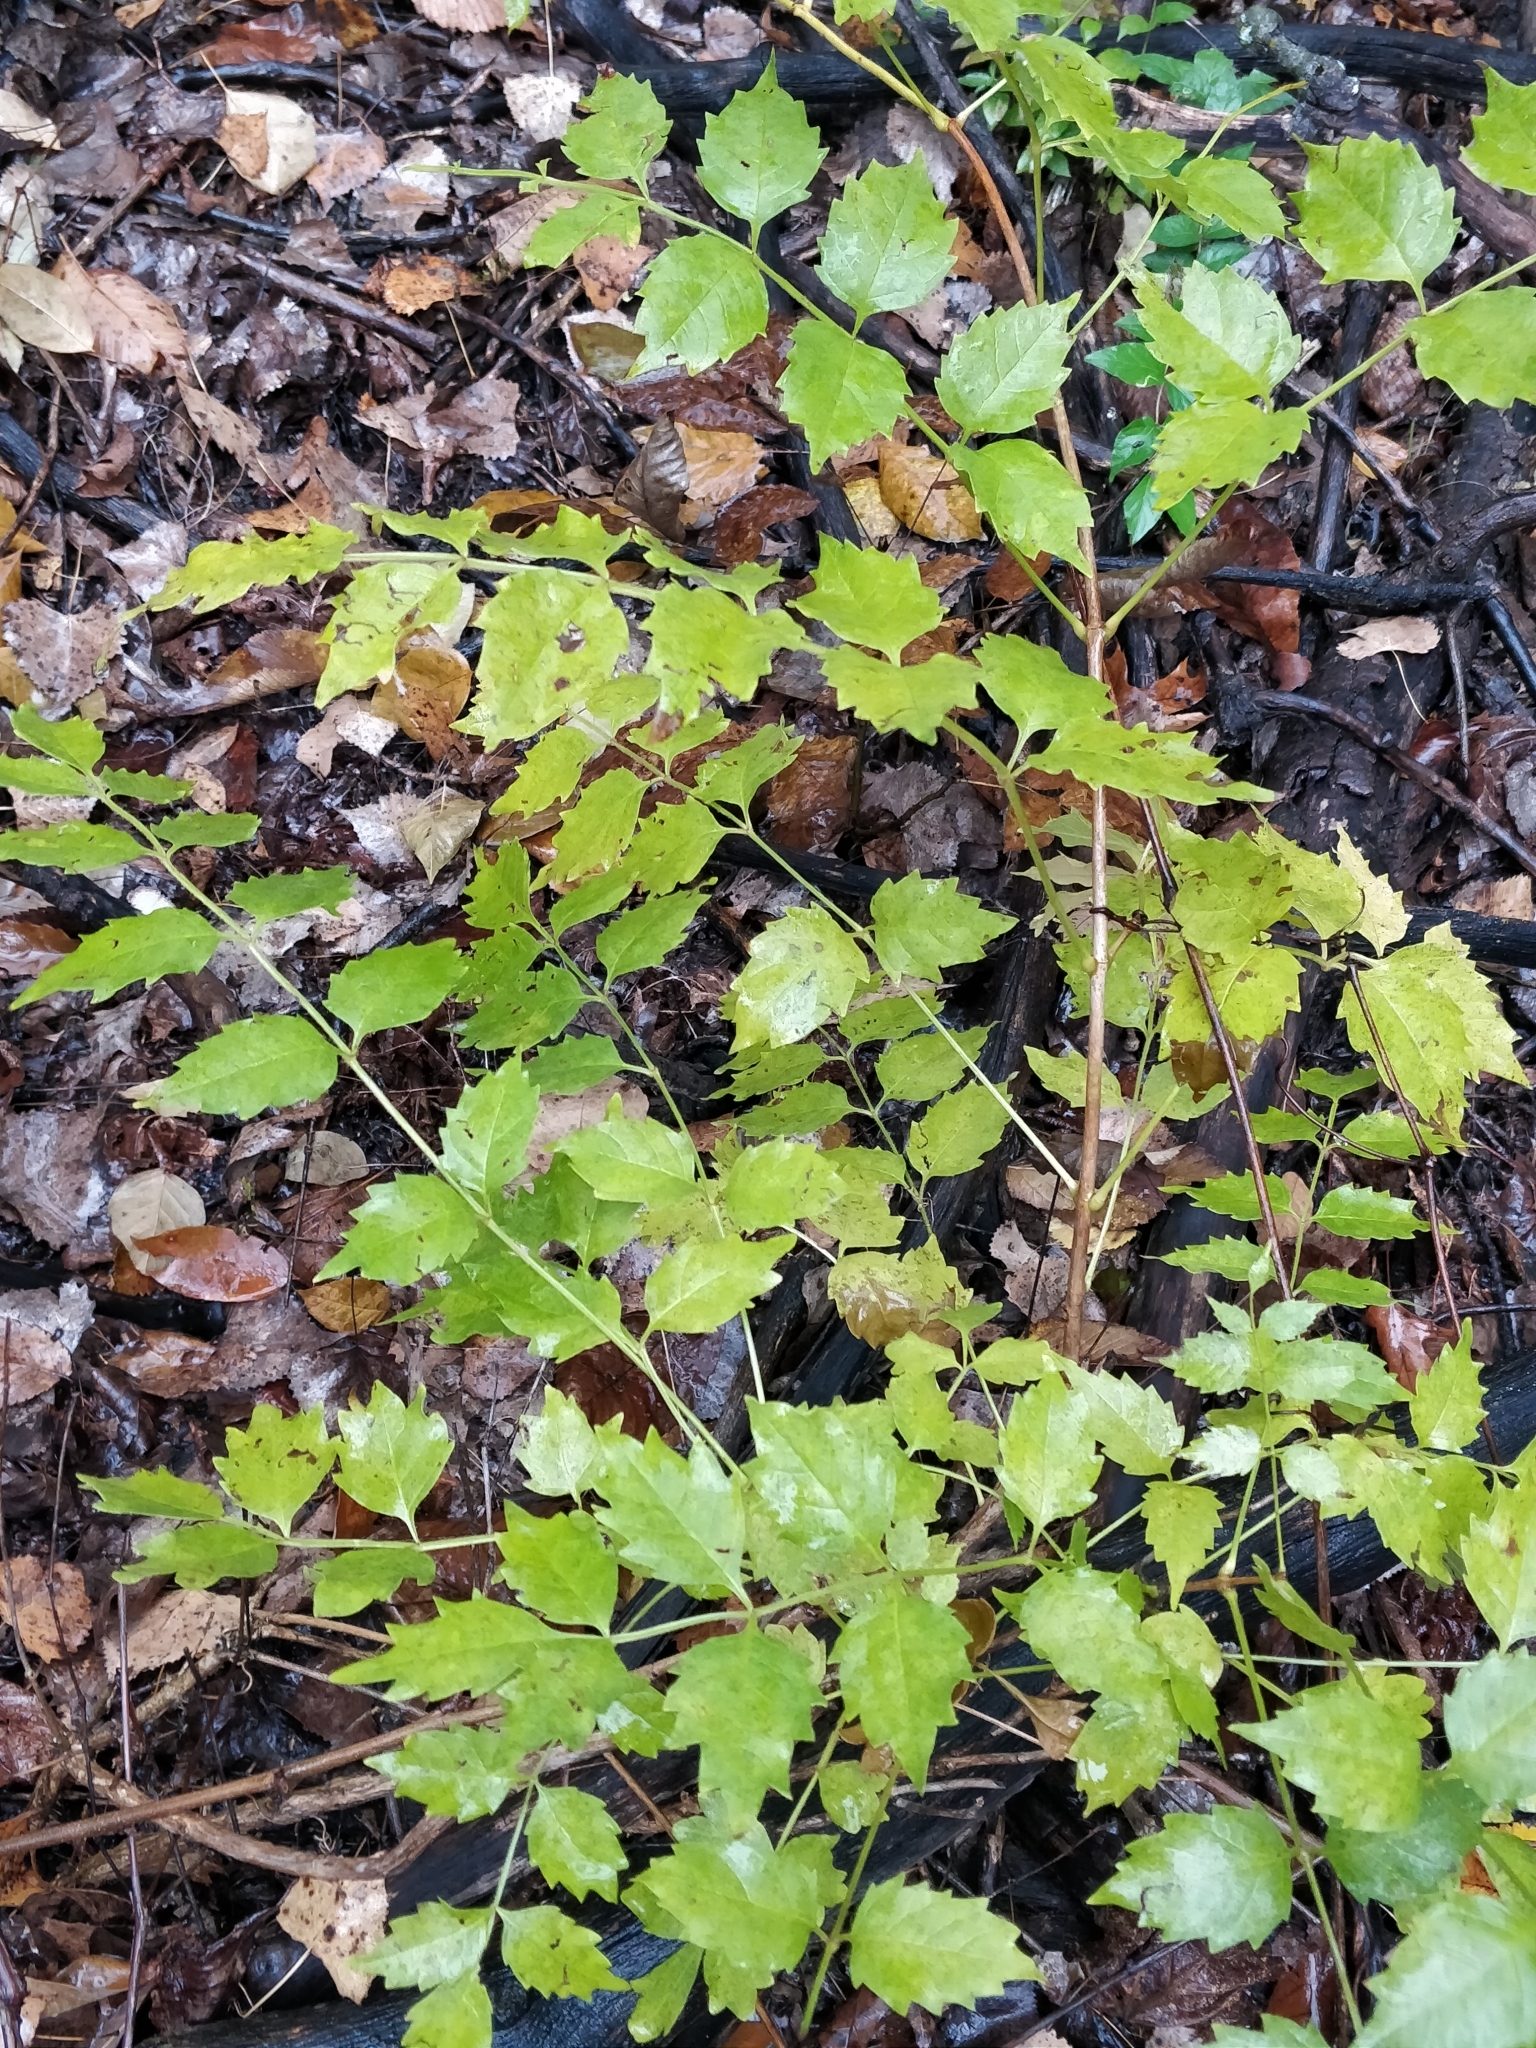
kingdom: Plantae
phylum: Tracheophyta
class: Magnoliopsida
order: Lamiales
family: Bignoniaceae
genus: Campsis
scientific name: Campsis radicans
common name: Trumpet-creeper
